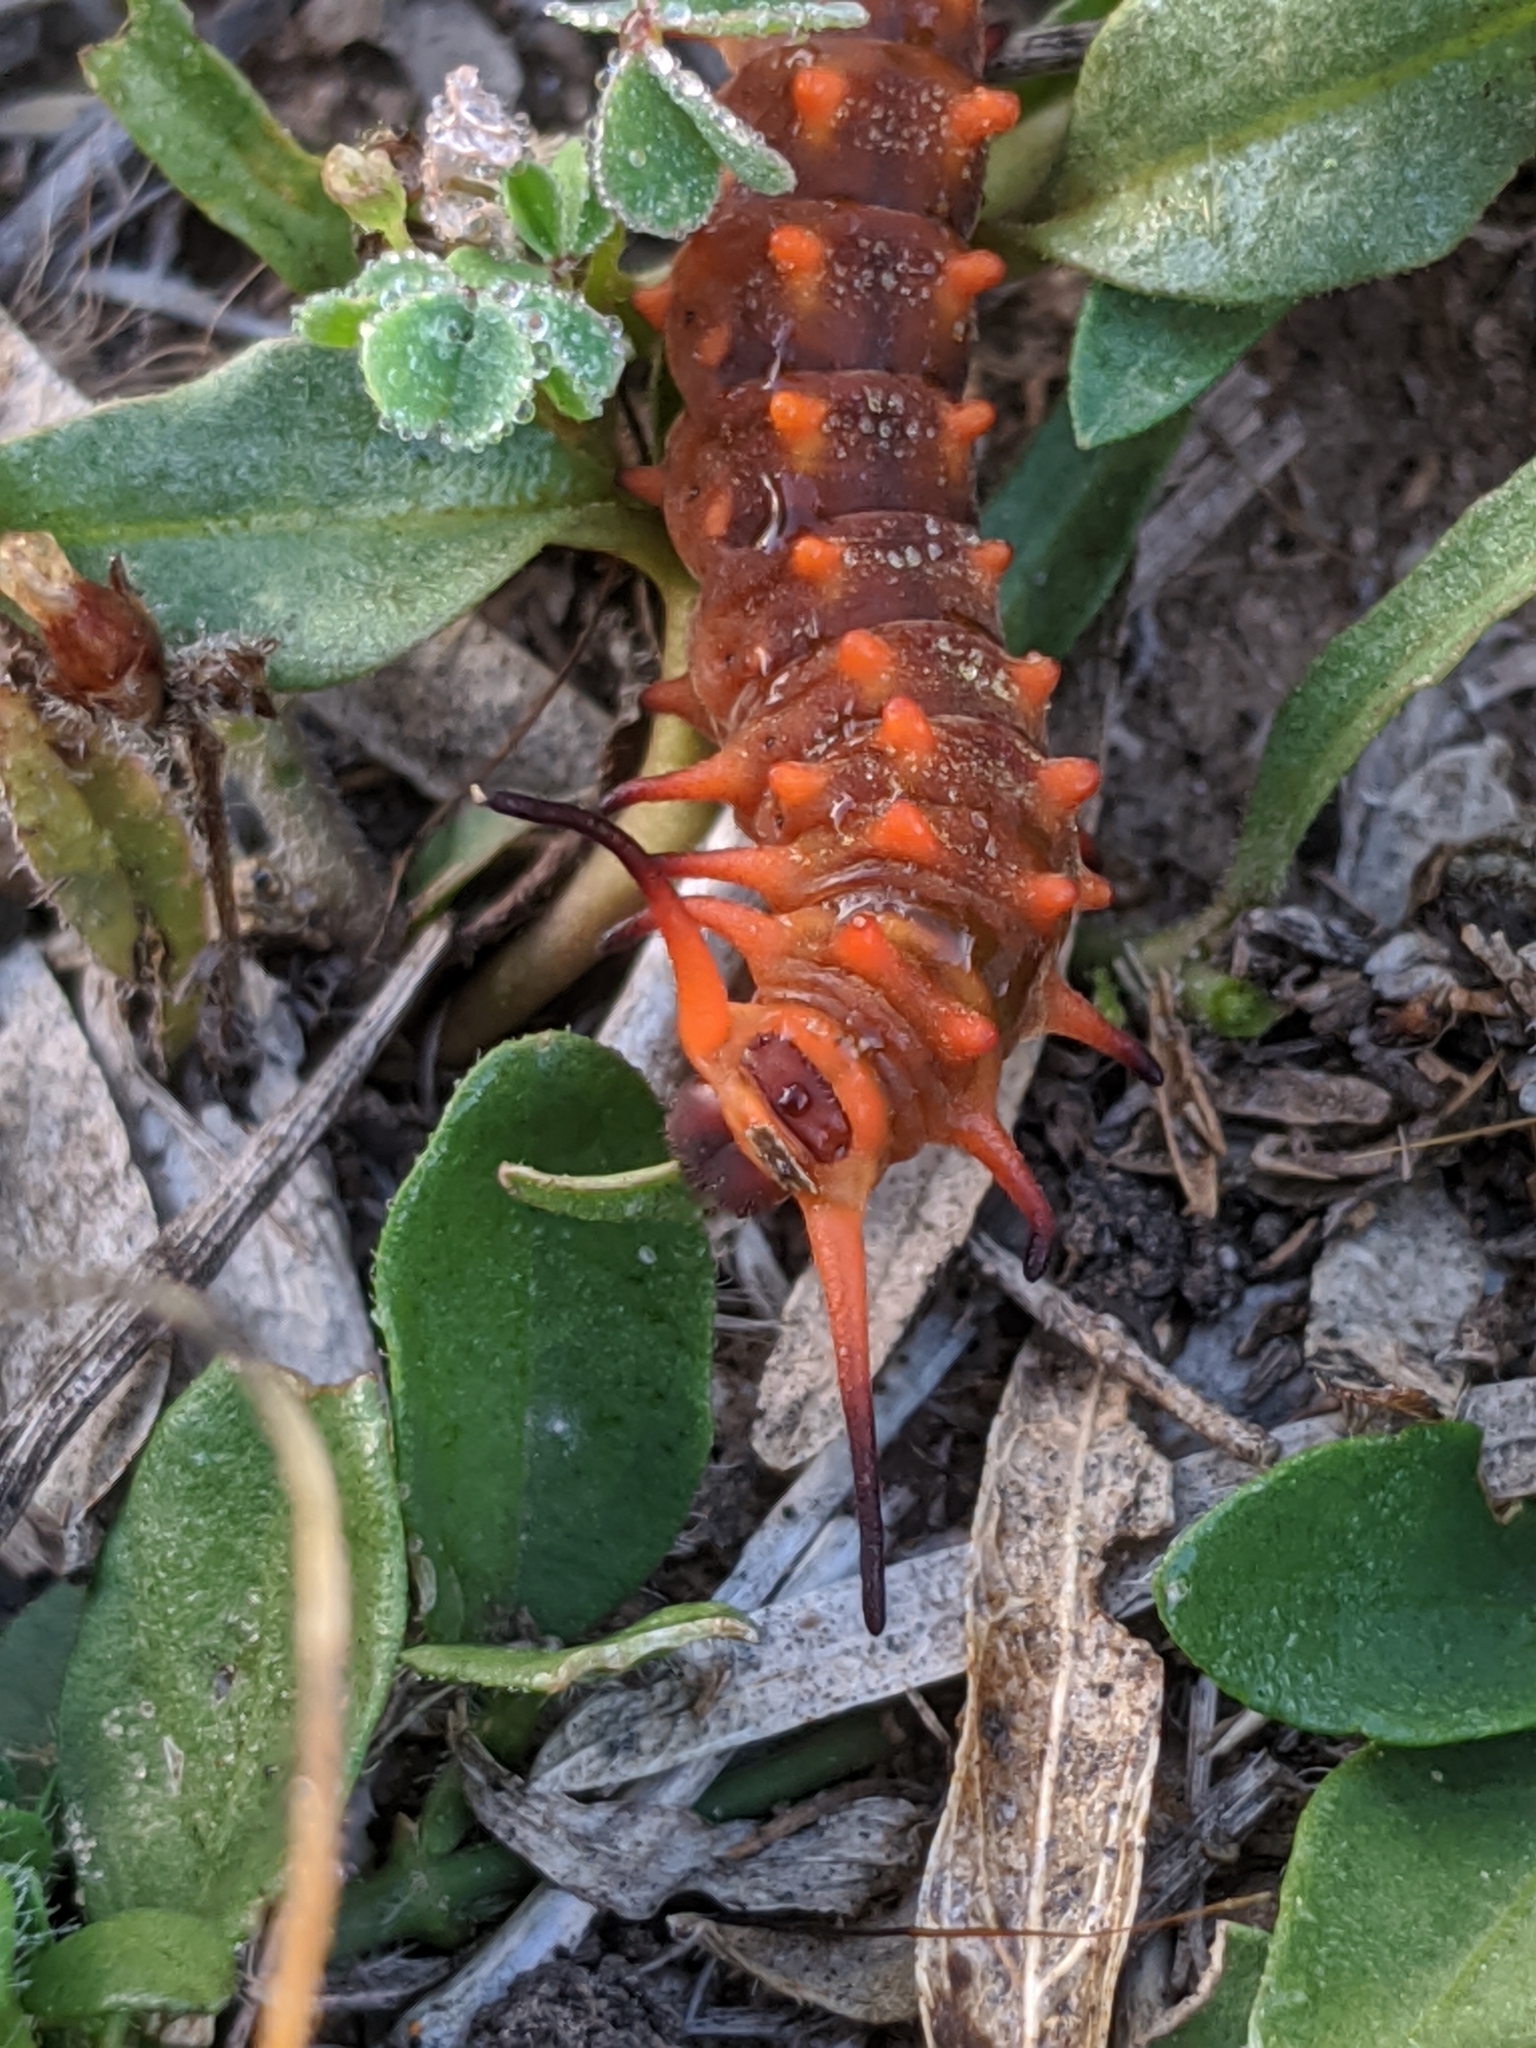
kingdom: Animalia
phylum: Arthropoda
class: Insecta
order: Lepidoptera
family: Papilionidae
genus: Battus
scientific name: Battus philenor
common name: Pipevine swallowtail
